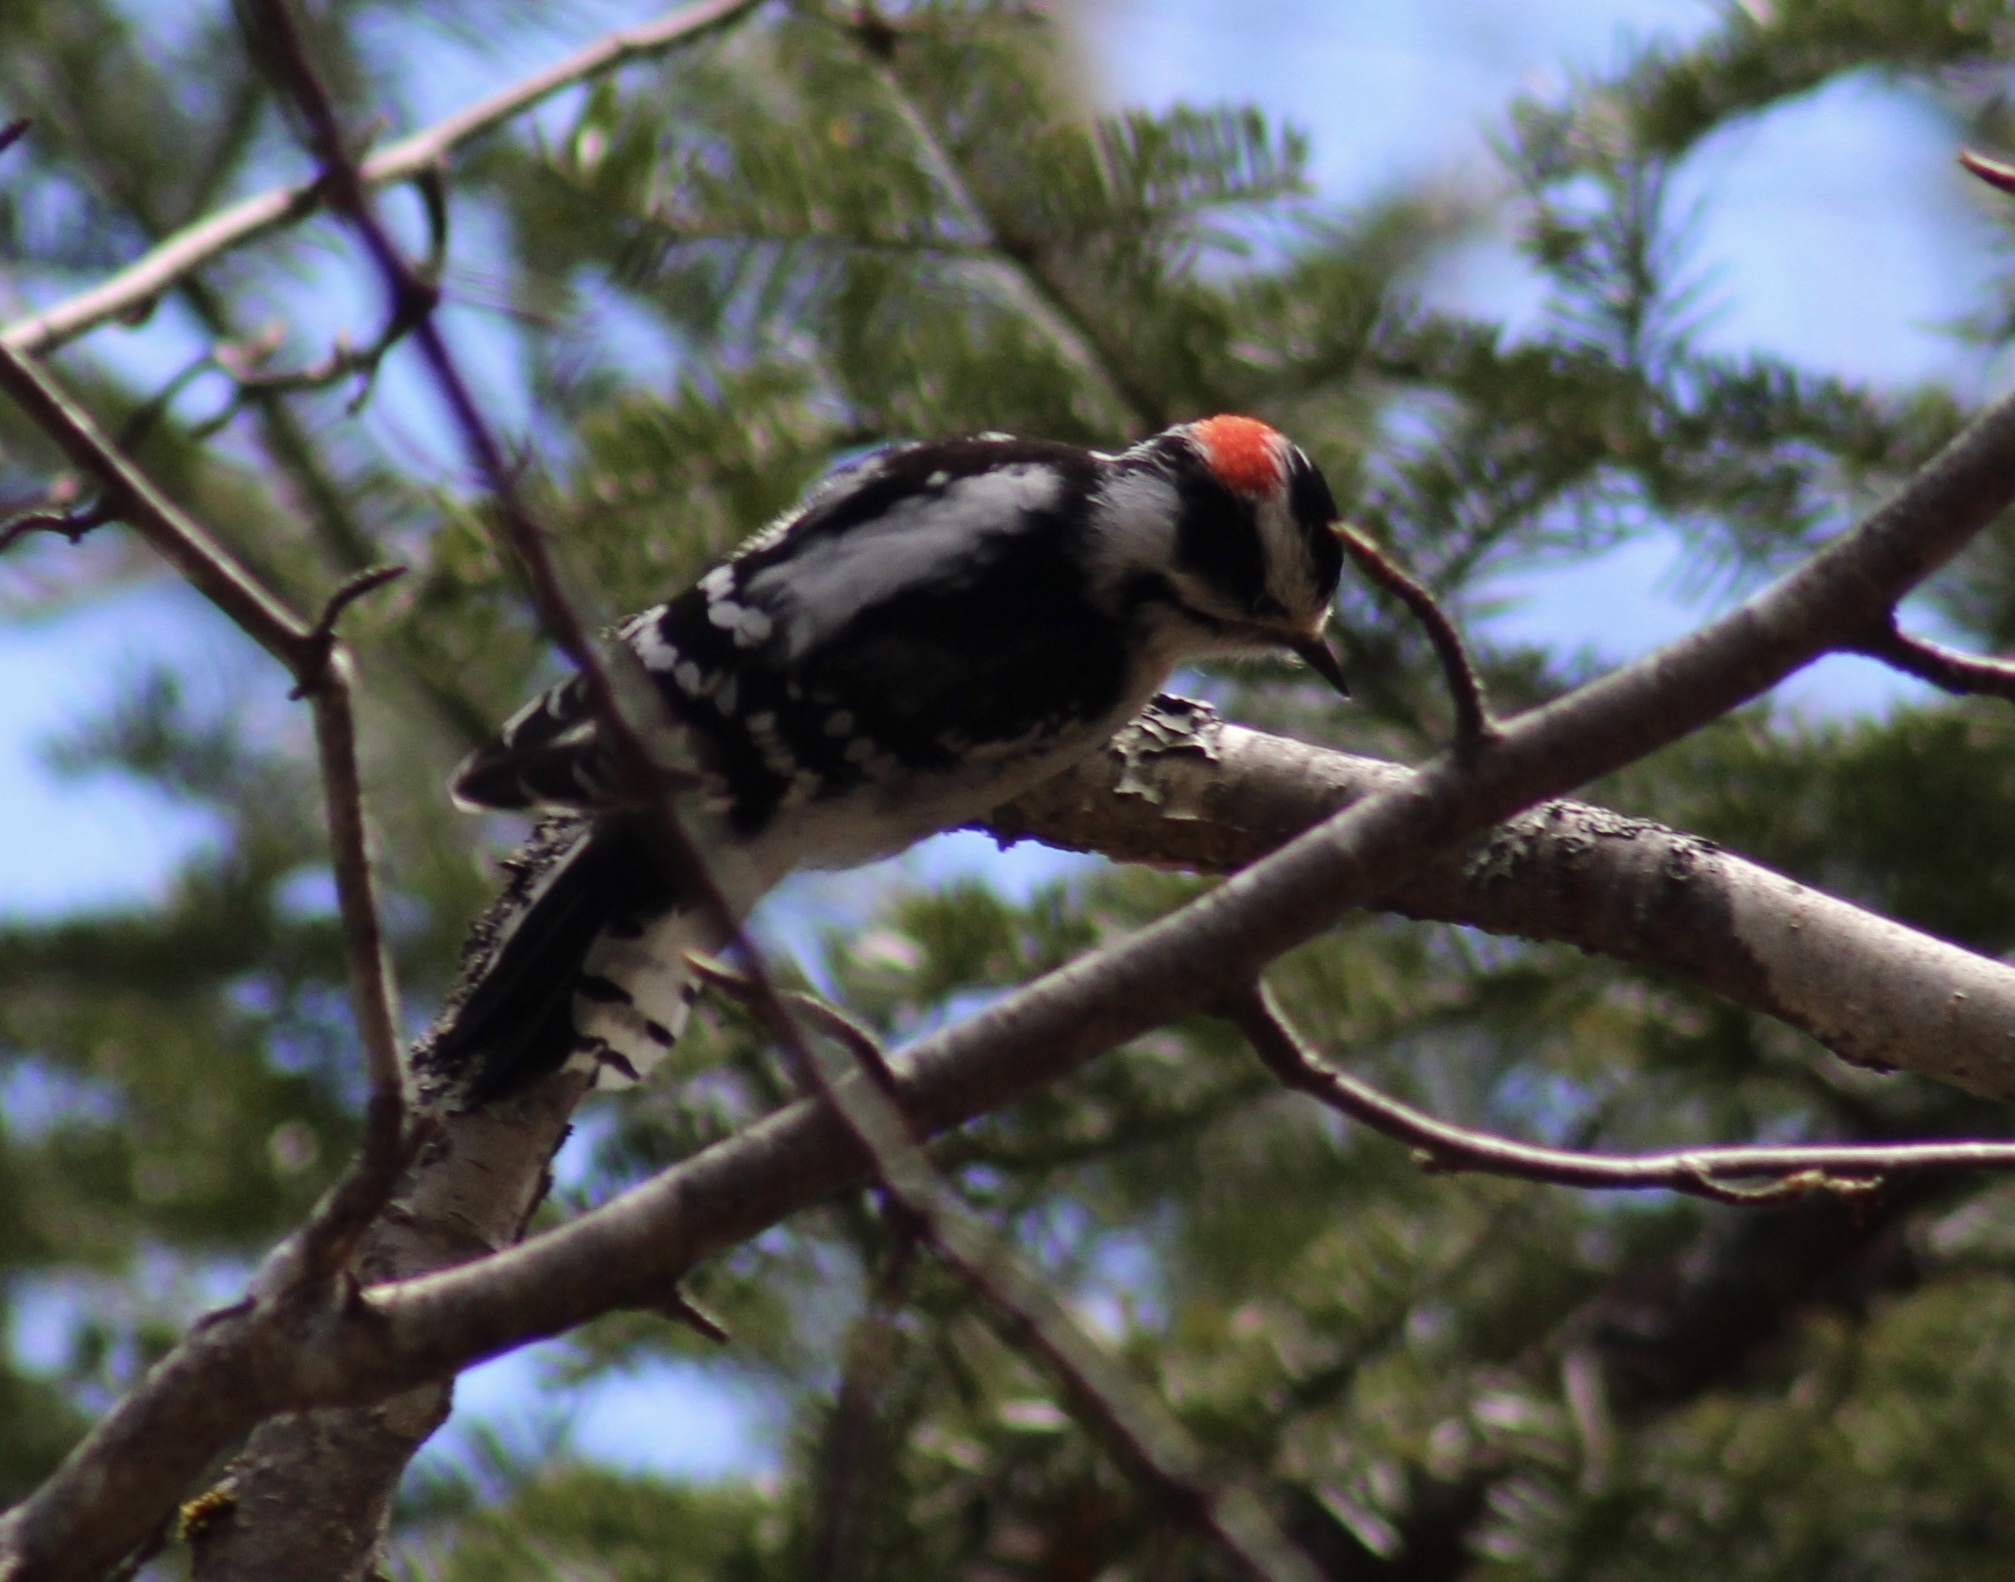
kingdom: Animalia
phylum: Chordata
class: Aves
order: Piciformes
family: Picidae
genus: Dryobates
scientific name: Dryobates pubescens
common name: Downy woodpecker
